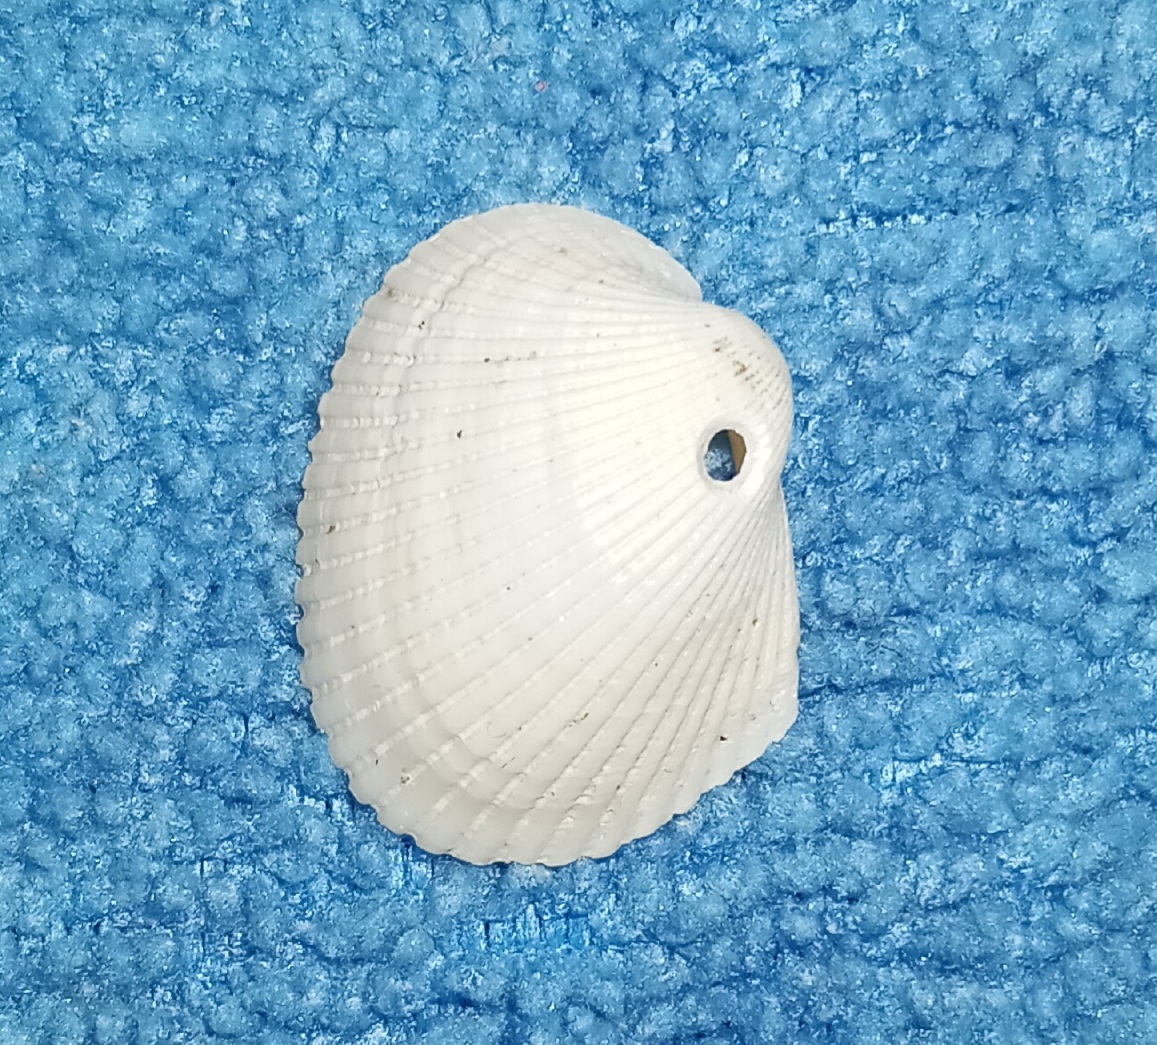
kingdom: Animalia
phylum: Mollusca
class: Bivalvia
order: Arcida
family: Arcidae
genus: Lunarca
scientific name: Lunarca ovalis
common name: Blood ark
